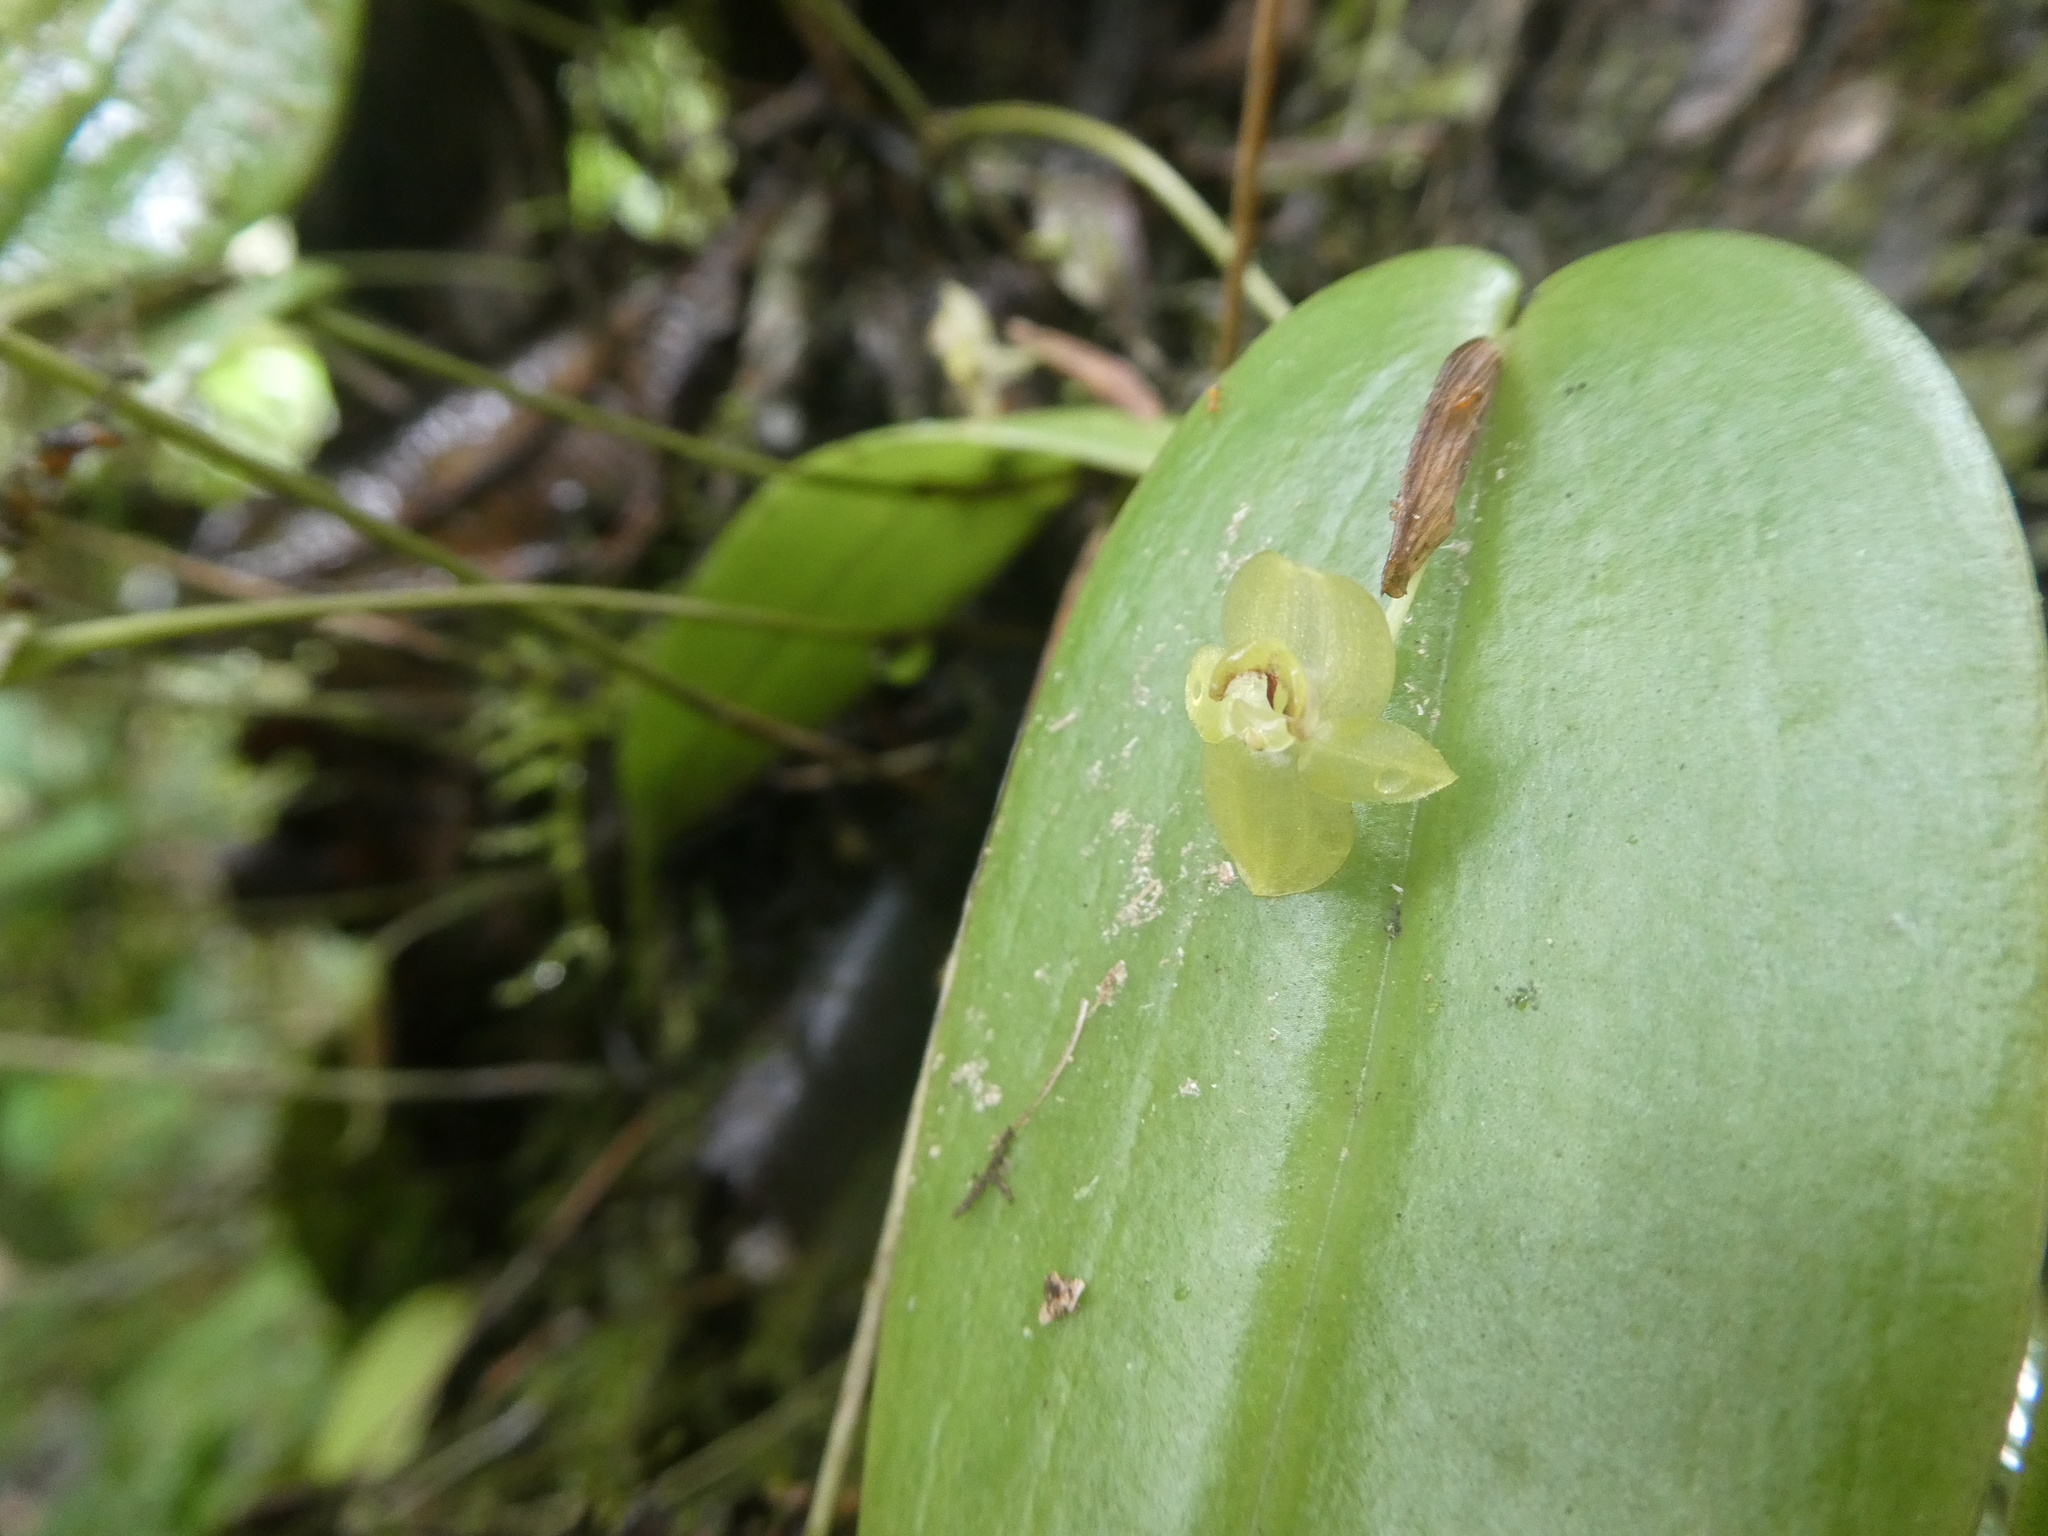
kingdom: Plantae
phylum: Tracheophyta
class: Liliopsida
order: Asparagales
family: Orchidaceae
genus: Pleurothallis
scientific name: Pleurothallis epiglottis
